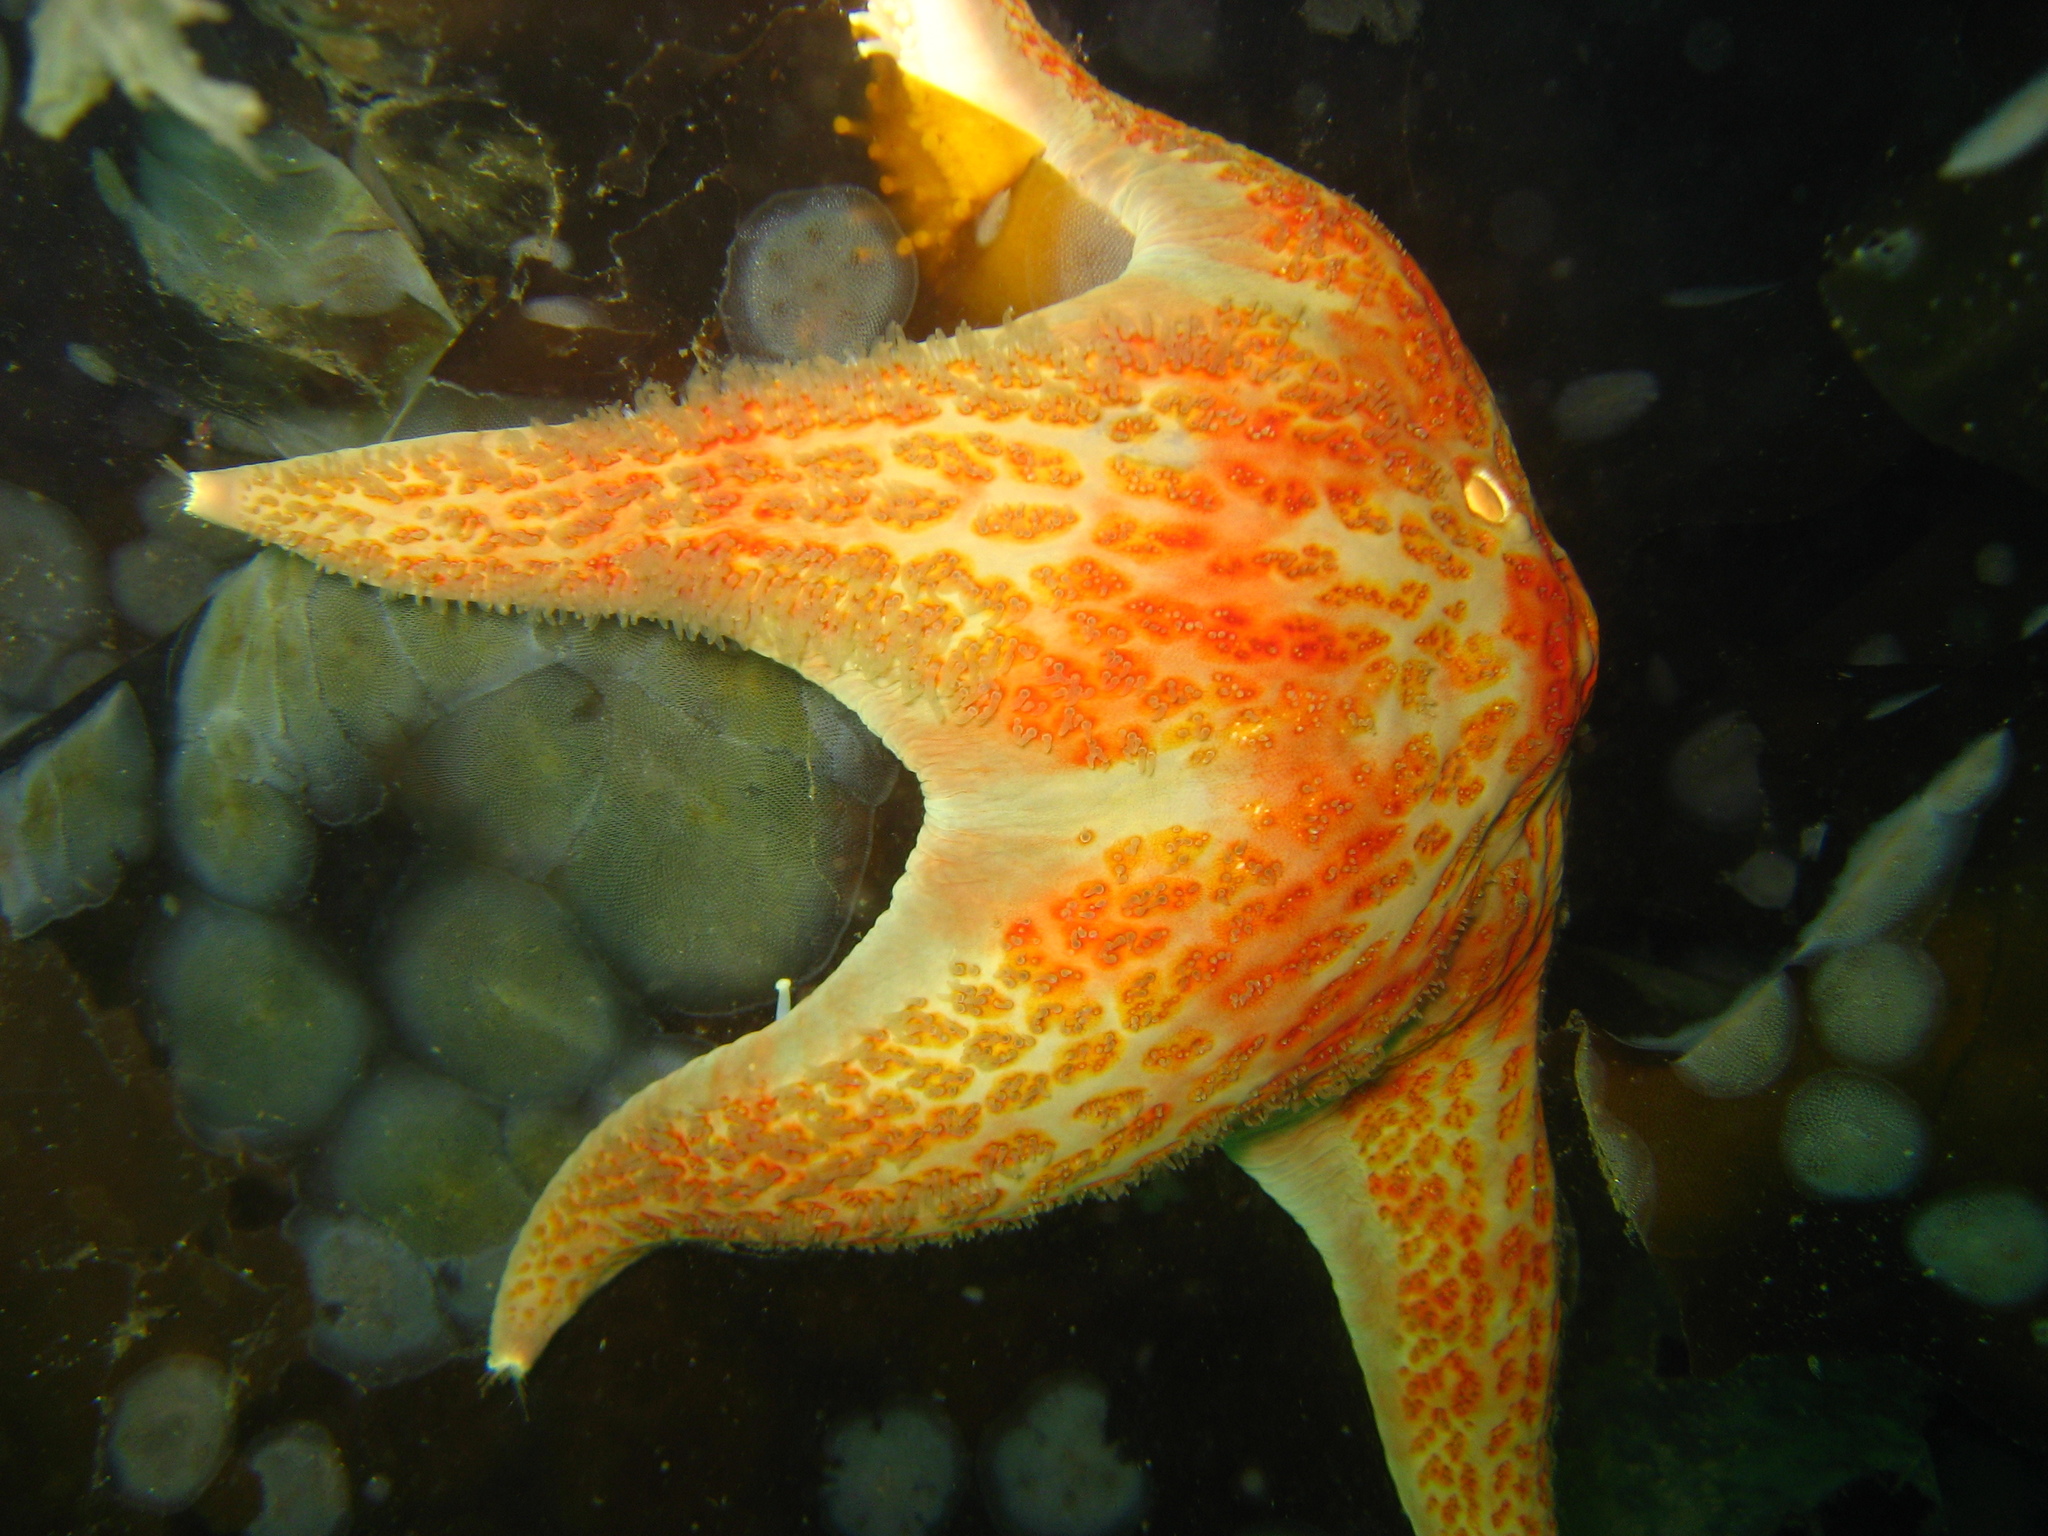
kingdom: Animalia
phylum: Echinodermata
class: Asteroidea
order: Valvatida
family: Asteropseidae
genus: Dermasterias
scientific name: Dermasterias imbricata
